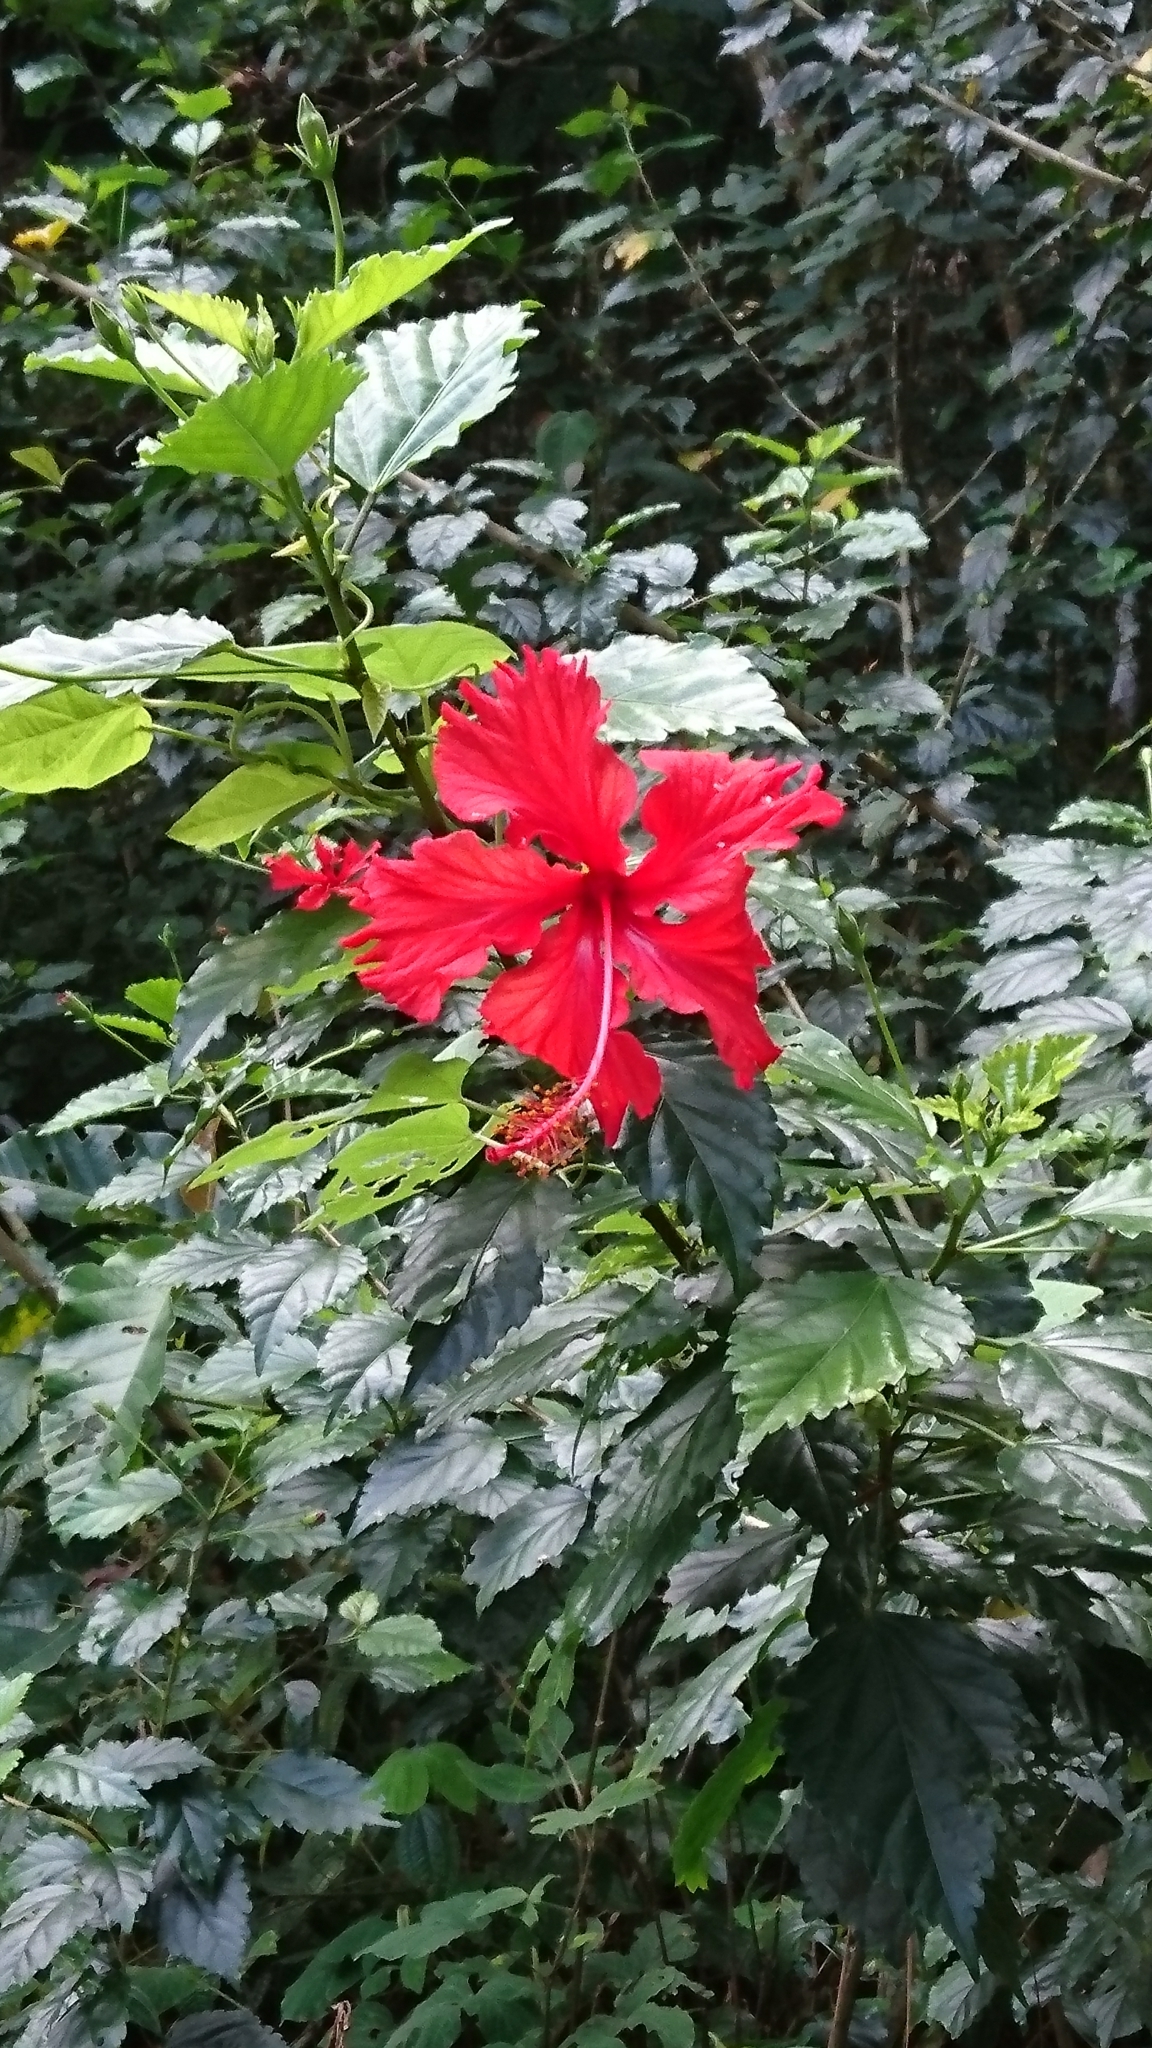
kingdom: Plantae
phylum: Tracheophyta
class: Magnoliopsida
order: Malvales
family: Malvaceae
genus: Hibiscus
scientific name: Hibiscus archeri
